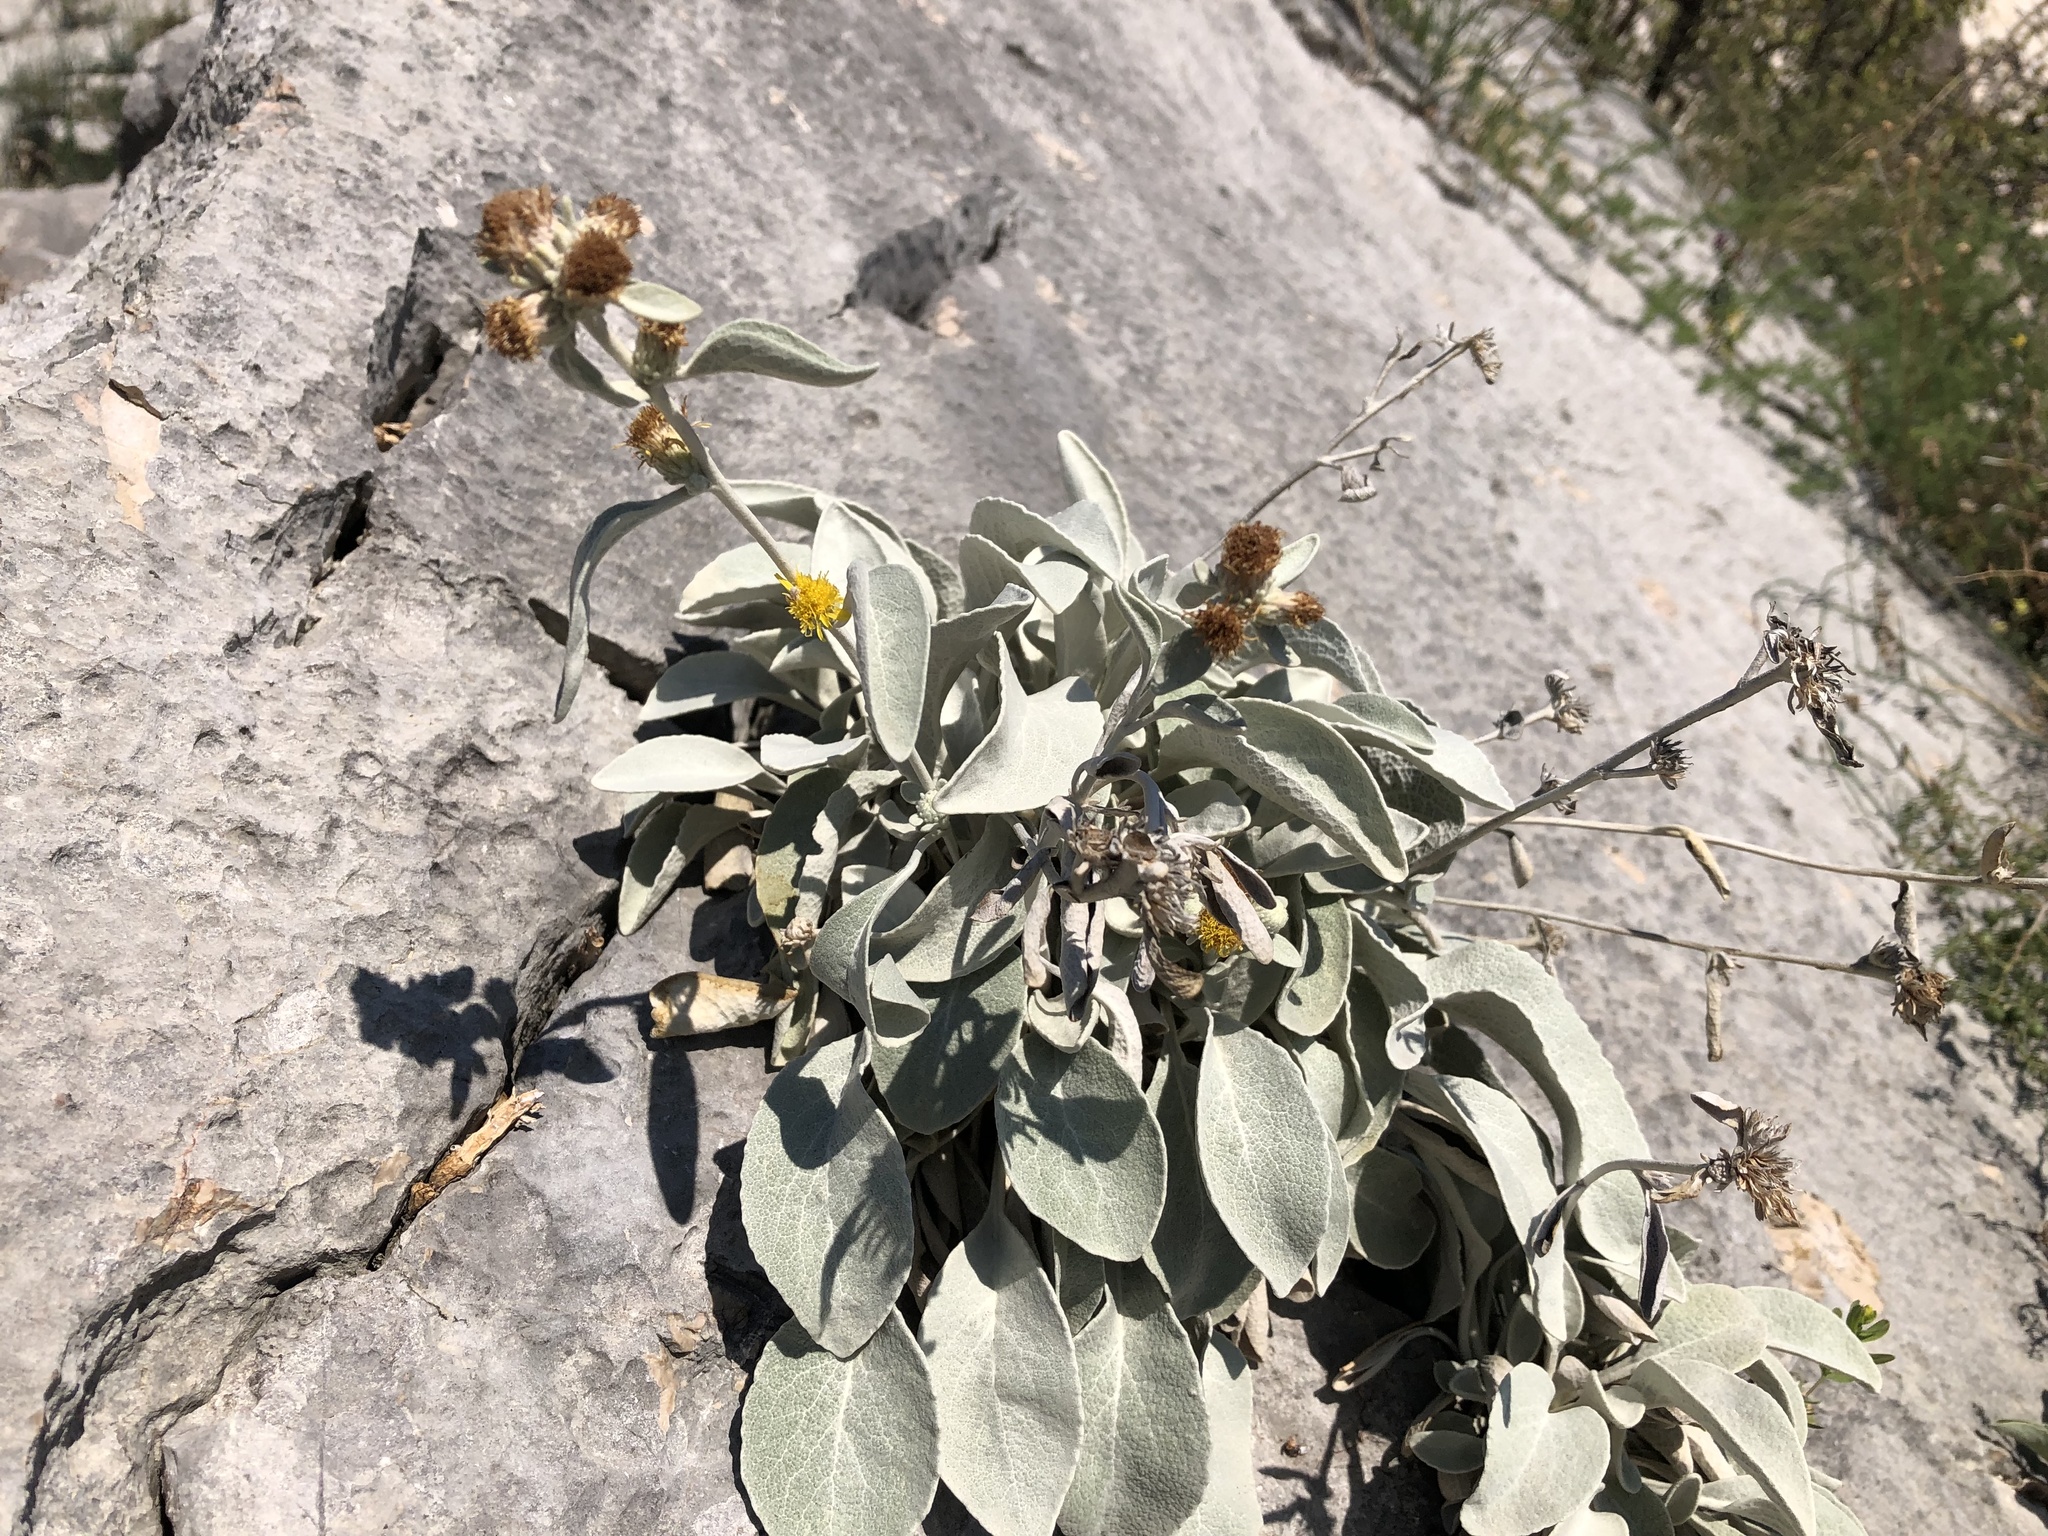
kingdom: Plantae
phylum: Tracheophyta
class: Magnoliopsida
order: Asterales
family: Asteraceae
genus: Pentanema
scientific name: Pentanema verbascifolium
